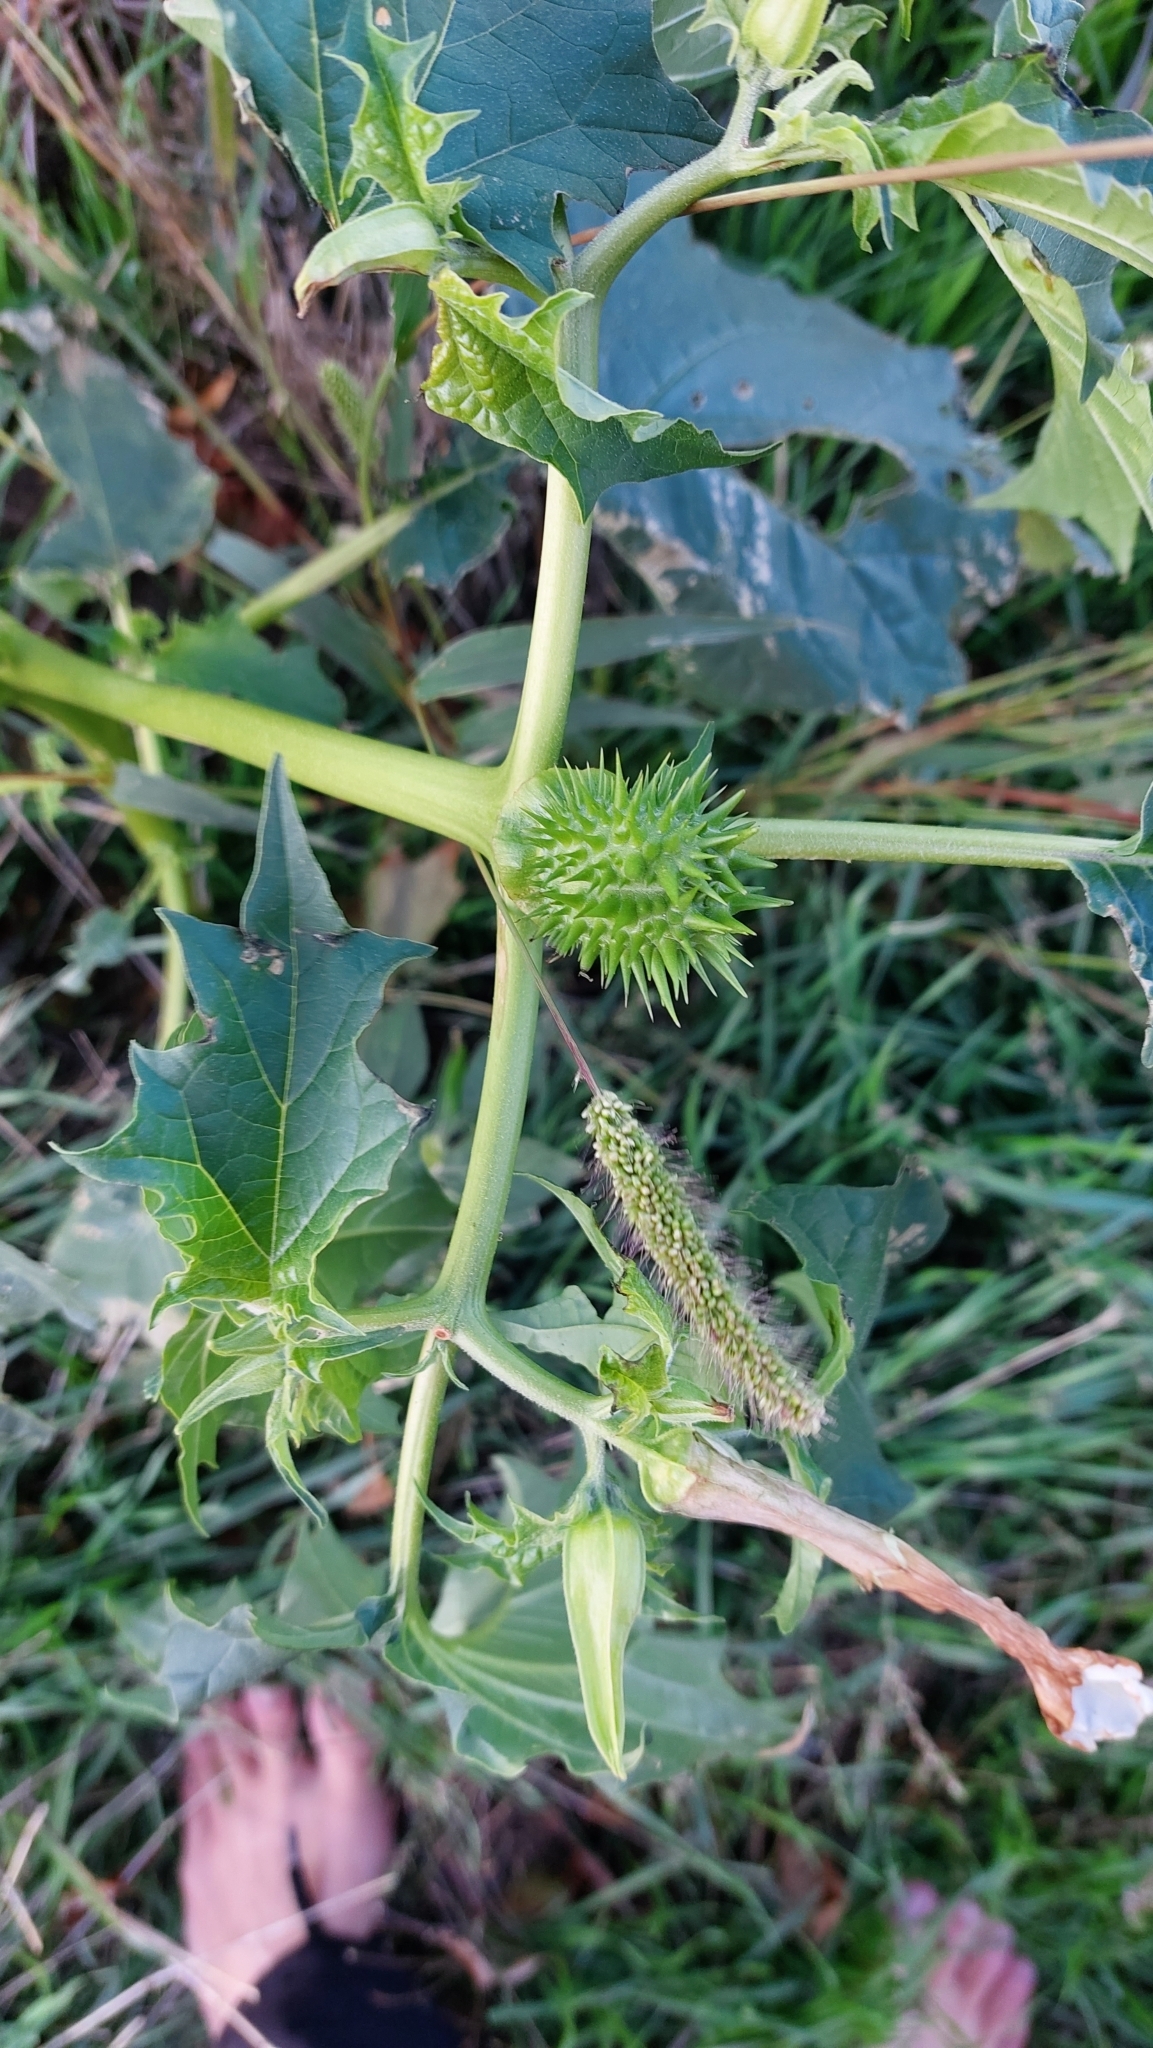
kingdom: Plantae
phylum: Tracheophyta
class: Magnoliopsida
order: Solanales
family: Solanaceae
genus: Datura
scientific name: Datura stramonium
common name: Thorn-apple
